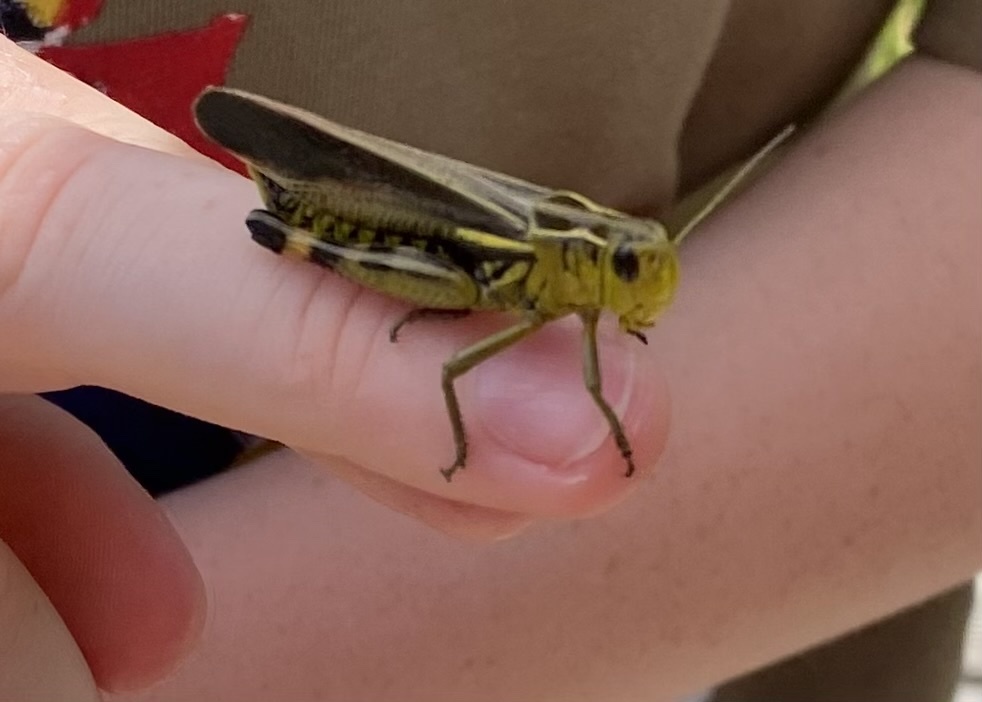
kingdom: Animalia
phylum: Arthropoda
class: Insecta
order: Orthoptera
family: Acrididae
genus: Arcyptera
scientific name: Arcyptera fusca
